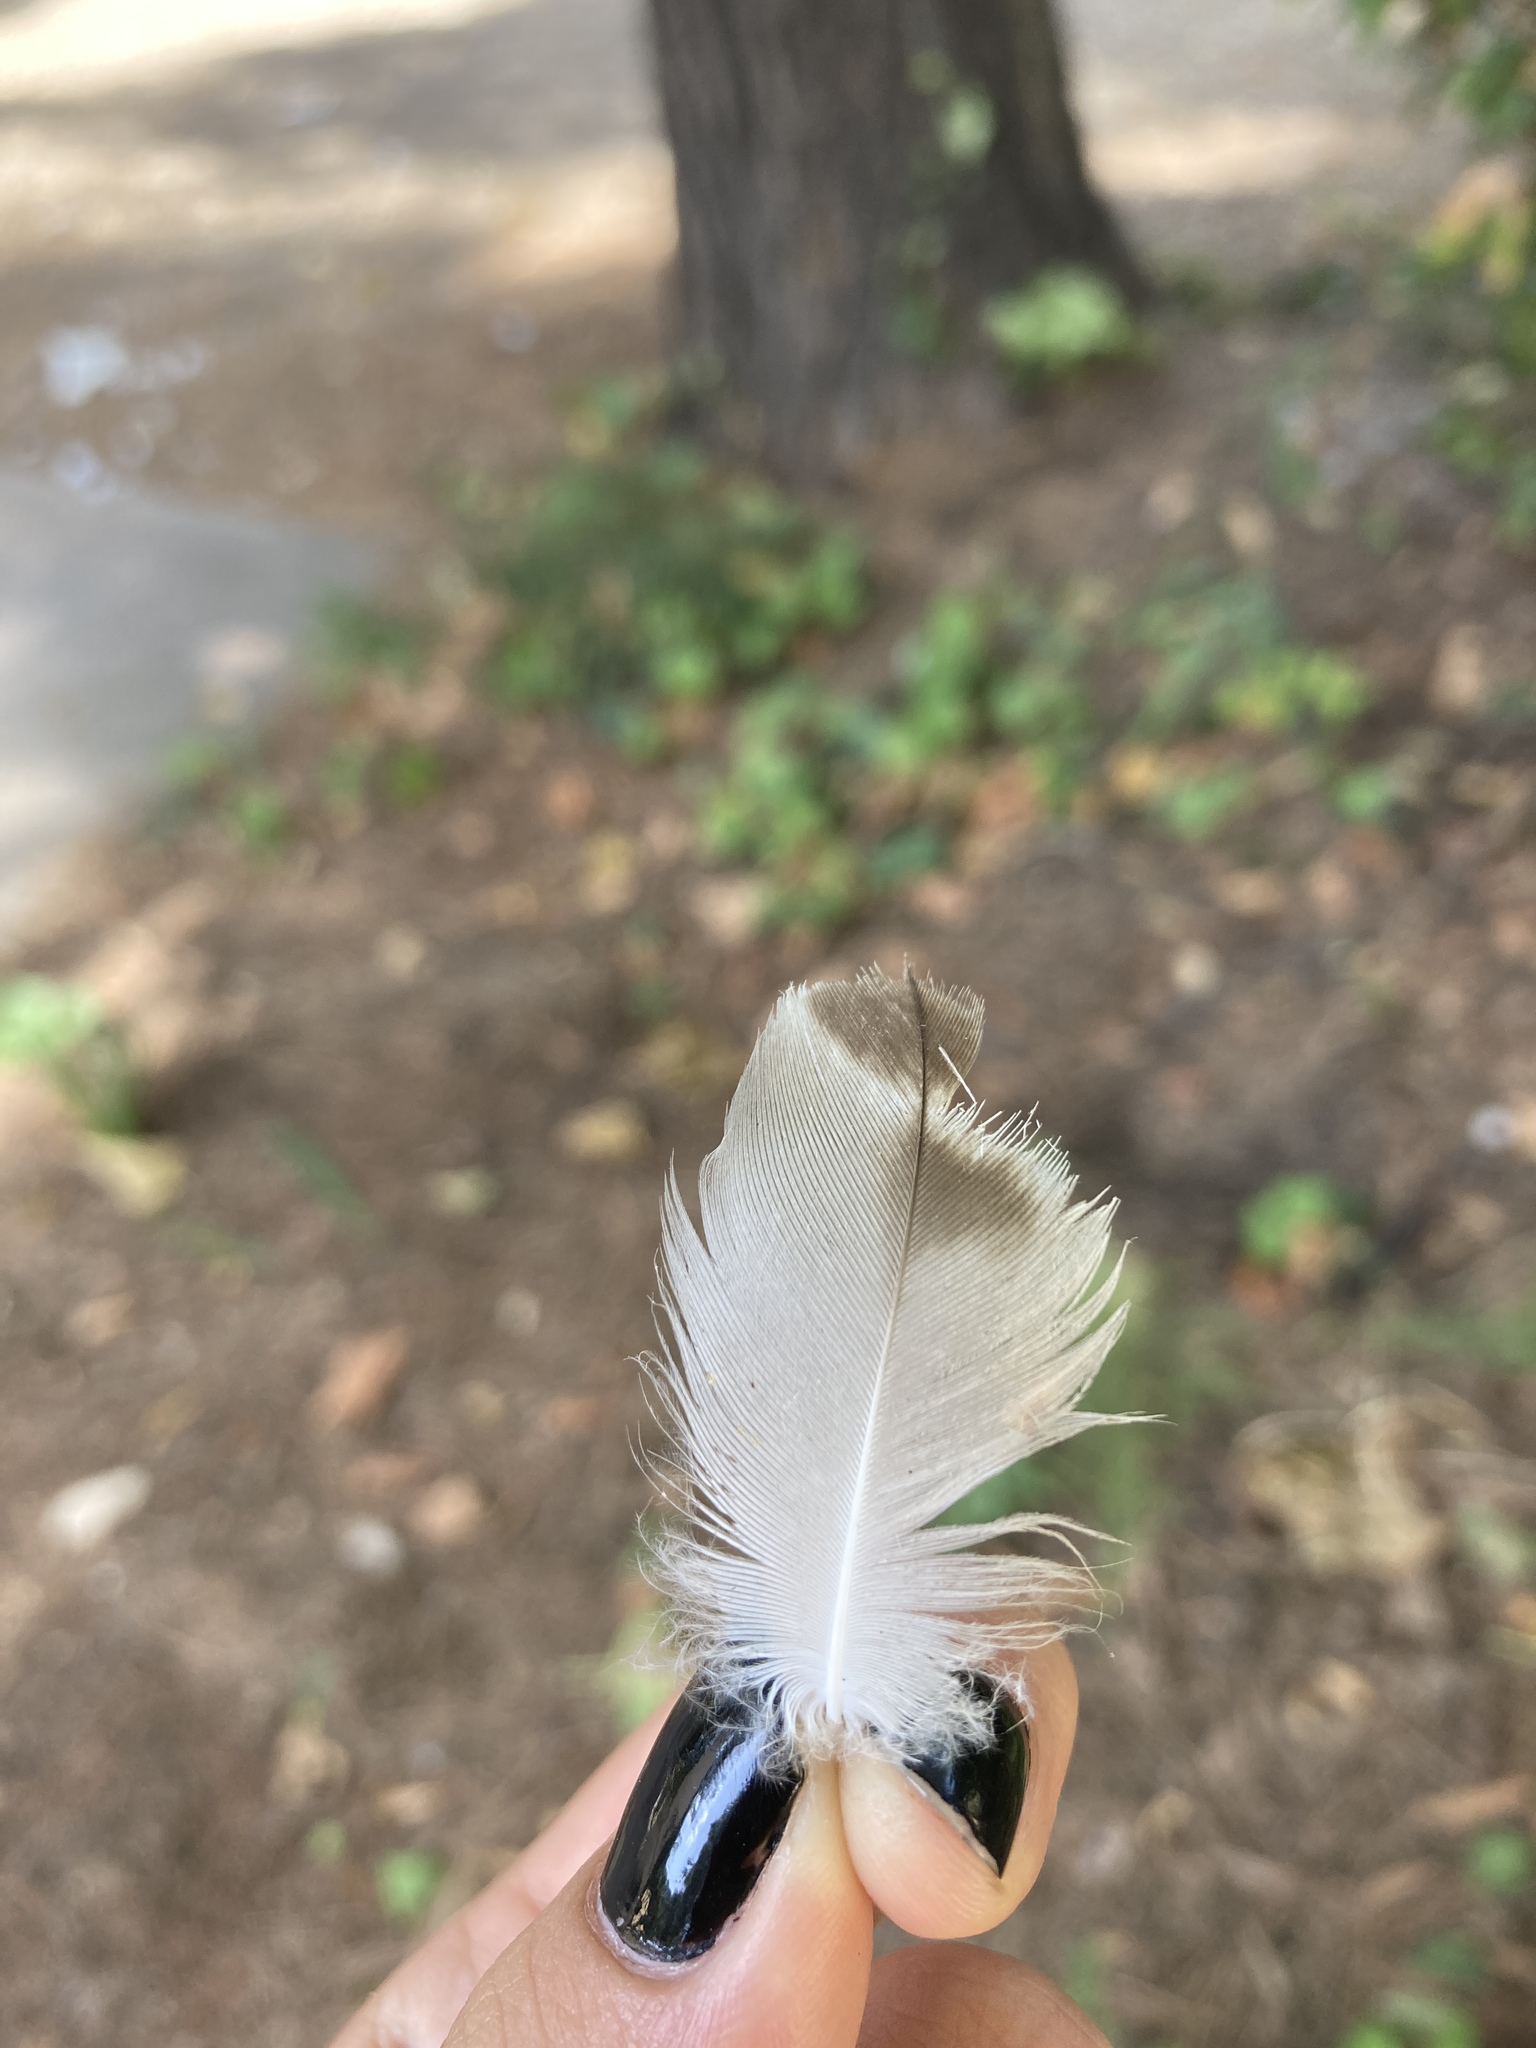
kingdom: Animalia
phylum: Chordata
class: Aves
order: Charadriiformes
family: Laridae
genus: Larus
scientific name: Larus michahellis
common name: Yellow-legged gull
